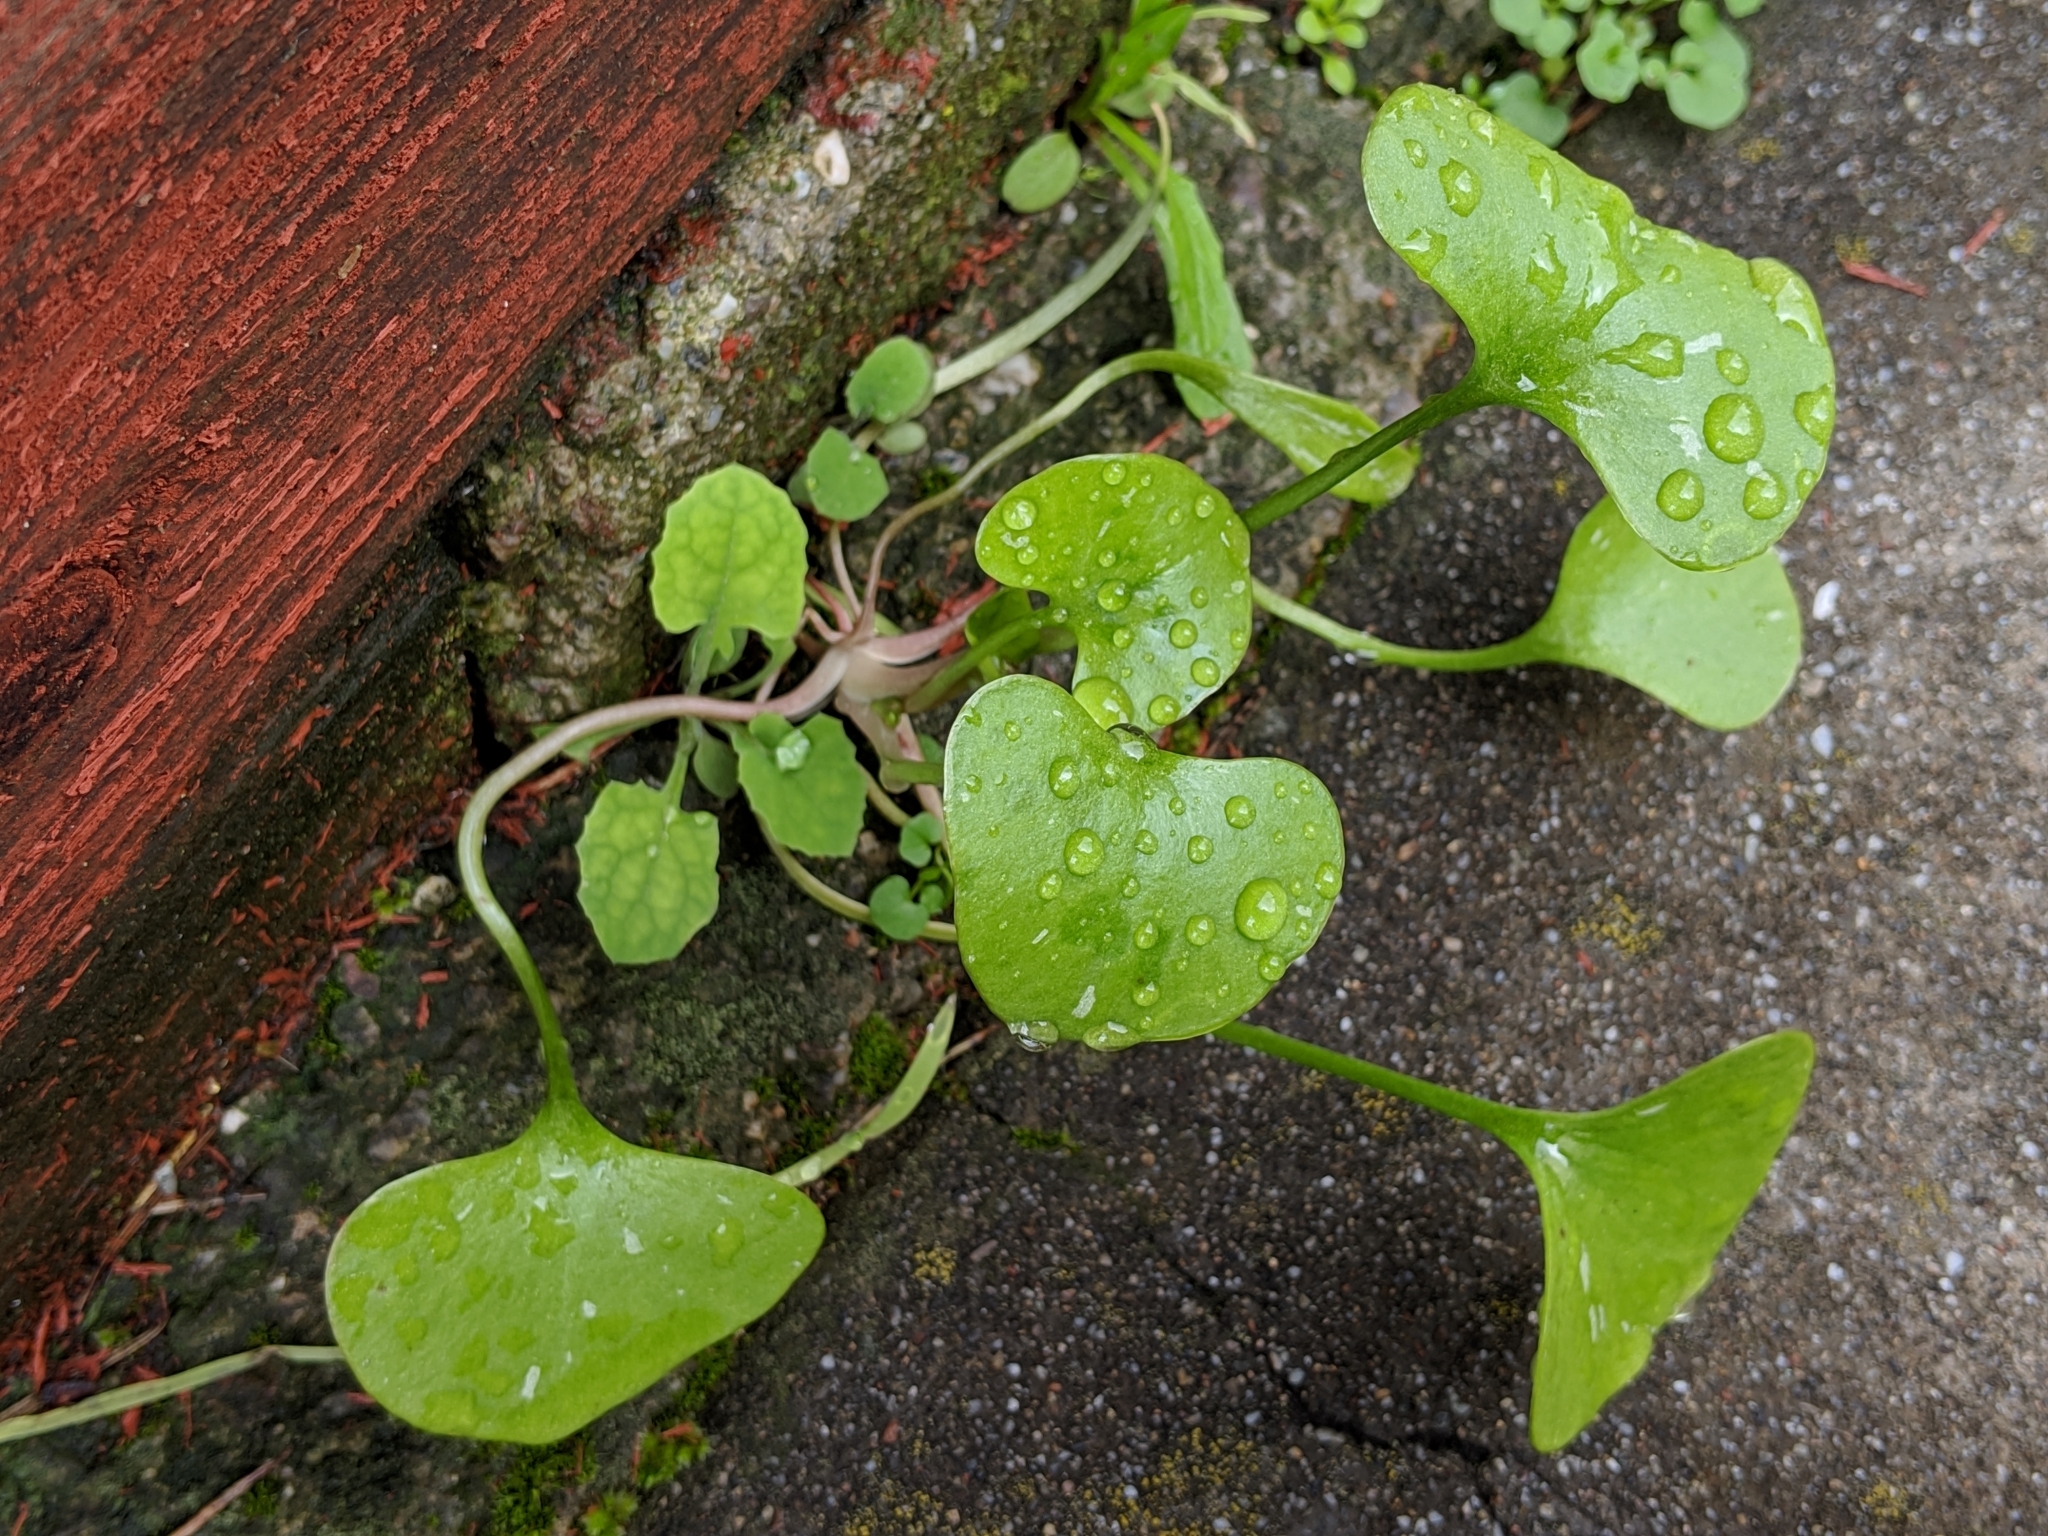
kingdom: Plantae
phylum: Tracheophyta
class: Magnoliopsida
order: Caryophyllales
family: Montiaceae
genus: Claytonia
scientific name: Claytonia perfoliata
